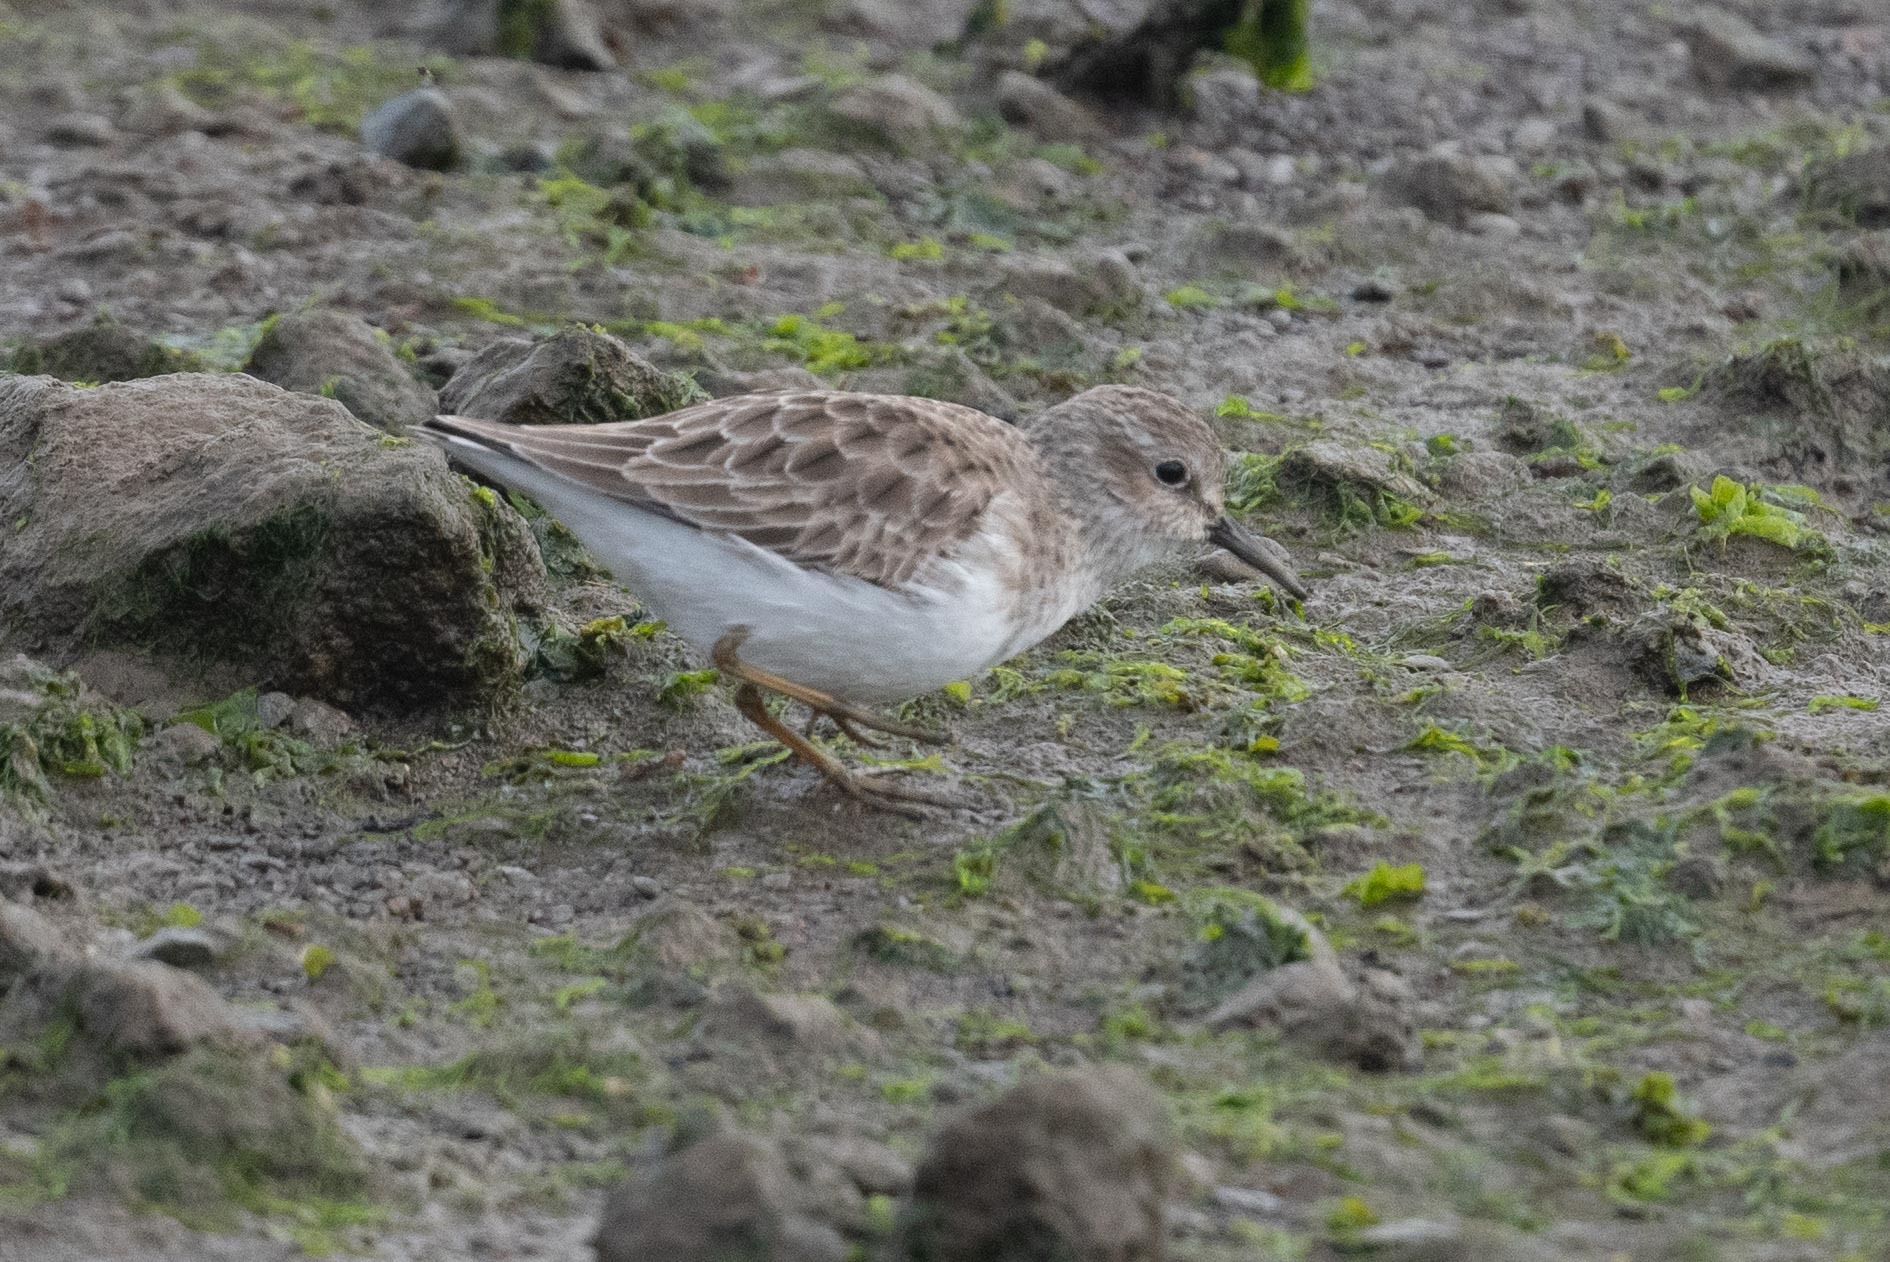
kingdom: Animalia
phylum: Chordata
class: Aves
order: Charadriiformes
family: Scolopacidae
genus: Calidris
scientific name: Calidris minutilla
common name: Least sandpiper
